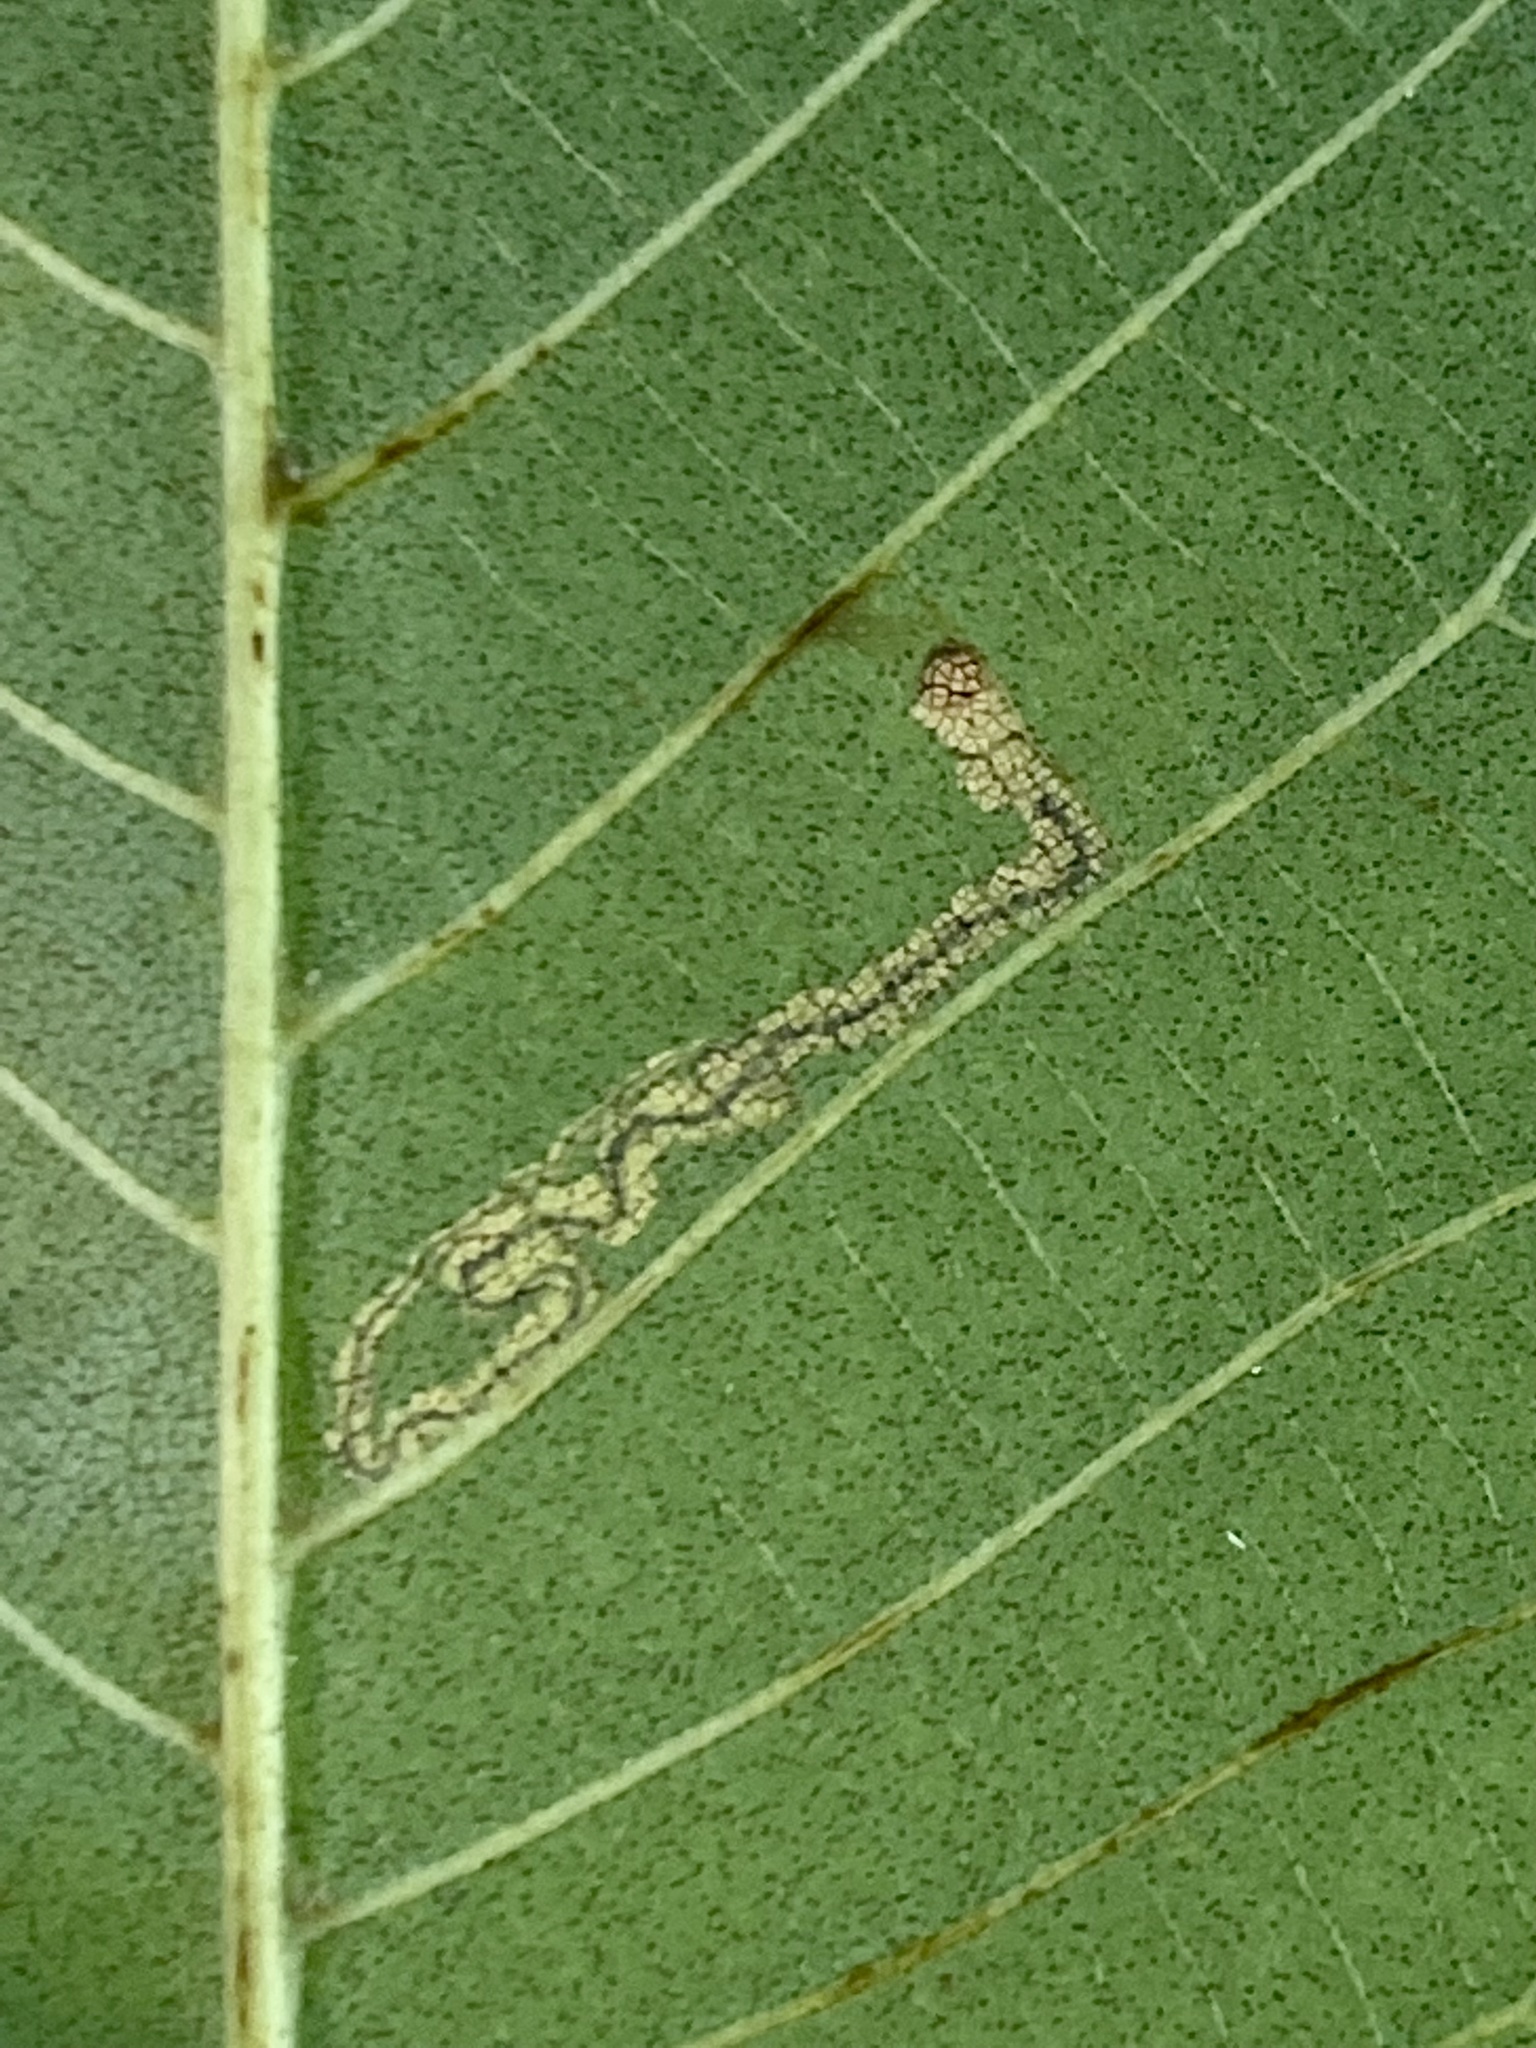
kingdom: Animalia
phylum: Arthropoda
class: Insecta
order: Lepidoptera
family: Nepticulidae
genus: Stigmella
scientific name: Stigmella caryaefoliella
